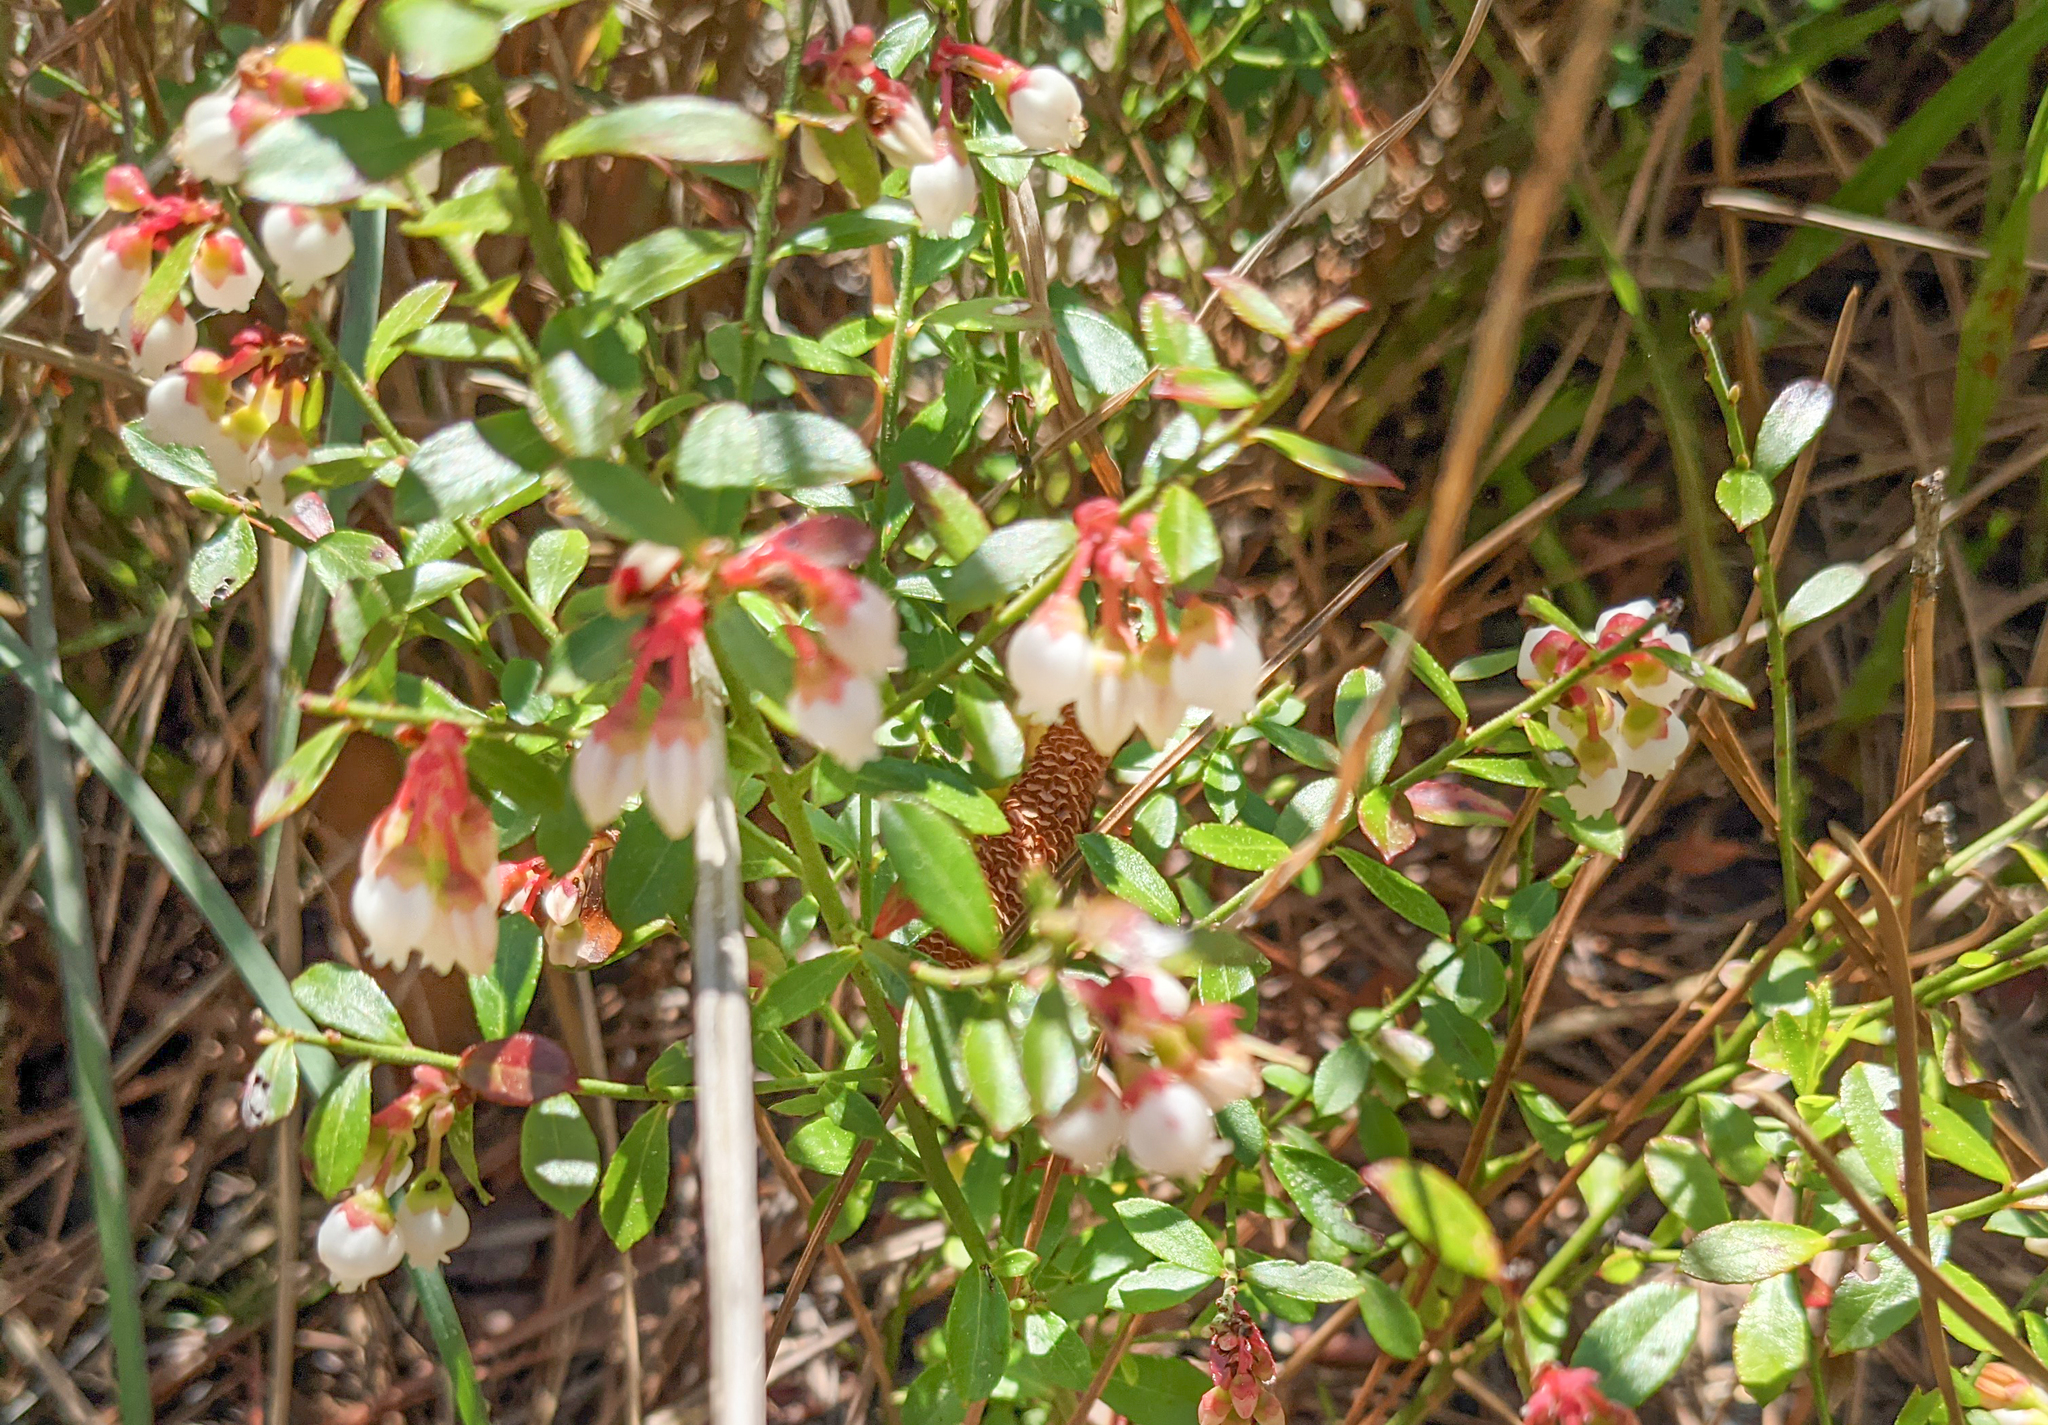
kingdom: Plantae
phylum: Tracheophyta
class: Magnoliopsida
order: Ericales
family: Ericaceae
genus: Vaccinium
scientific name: Vaccinium myrsinites
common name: Evergreen blueberry
